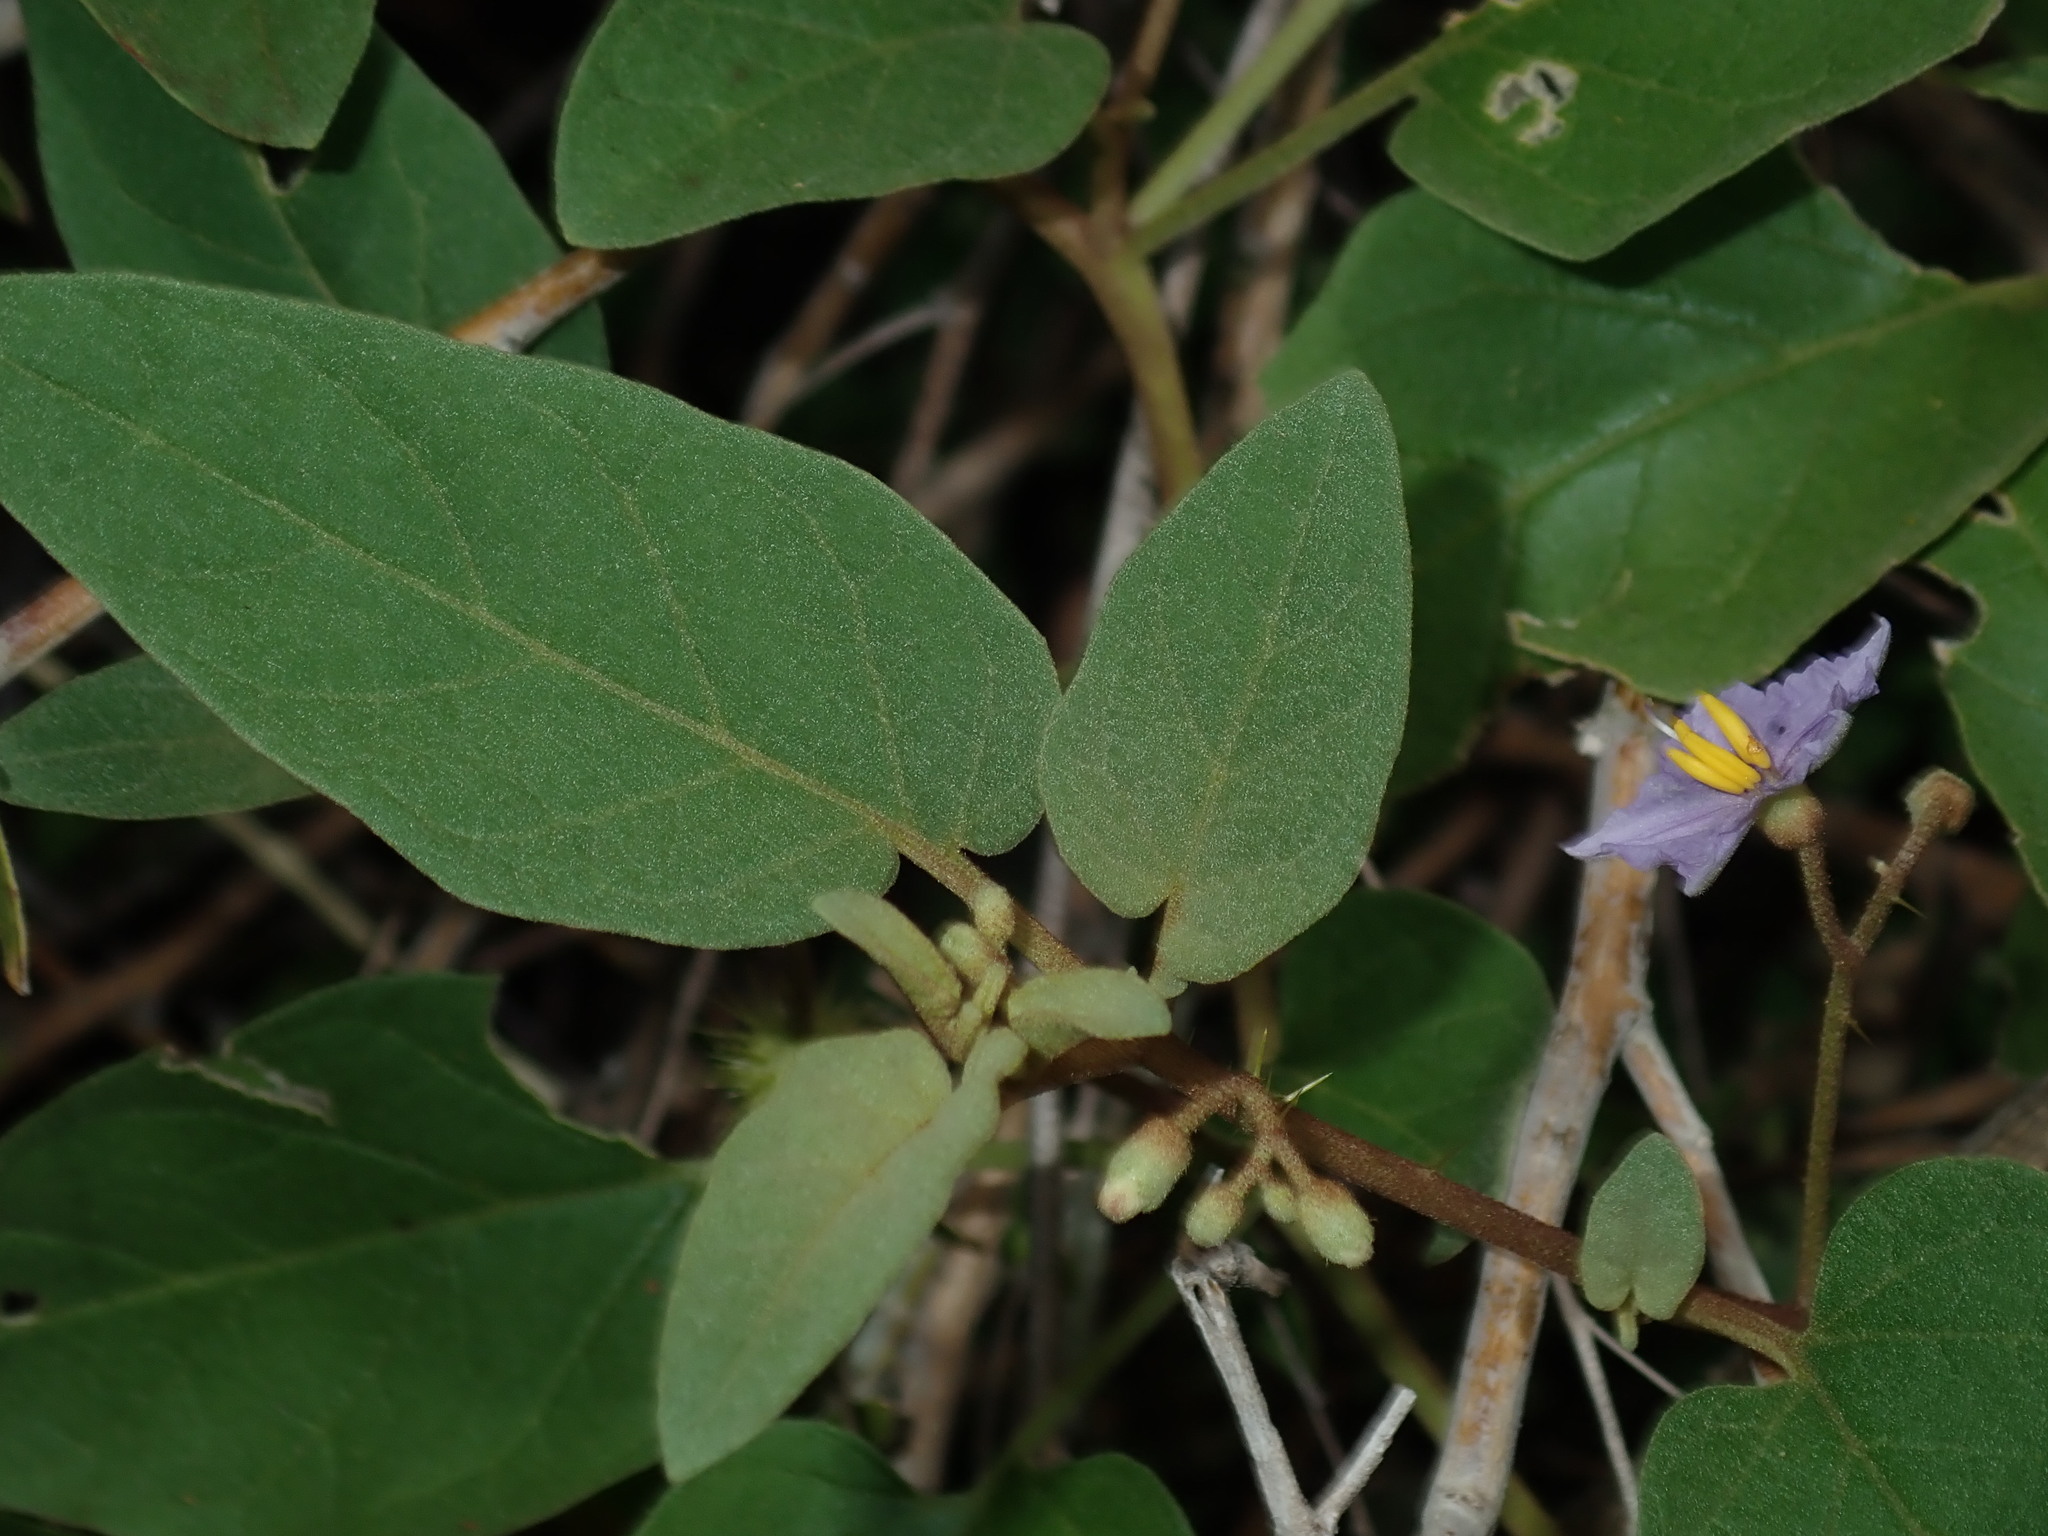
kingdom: Plantae
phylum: Tracheophyta
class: Magnoliopsida
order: Solanales
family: Solanaceae
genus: Solanum
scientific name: Solanum lapidosum
